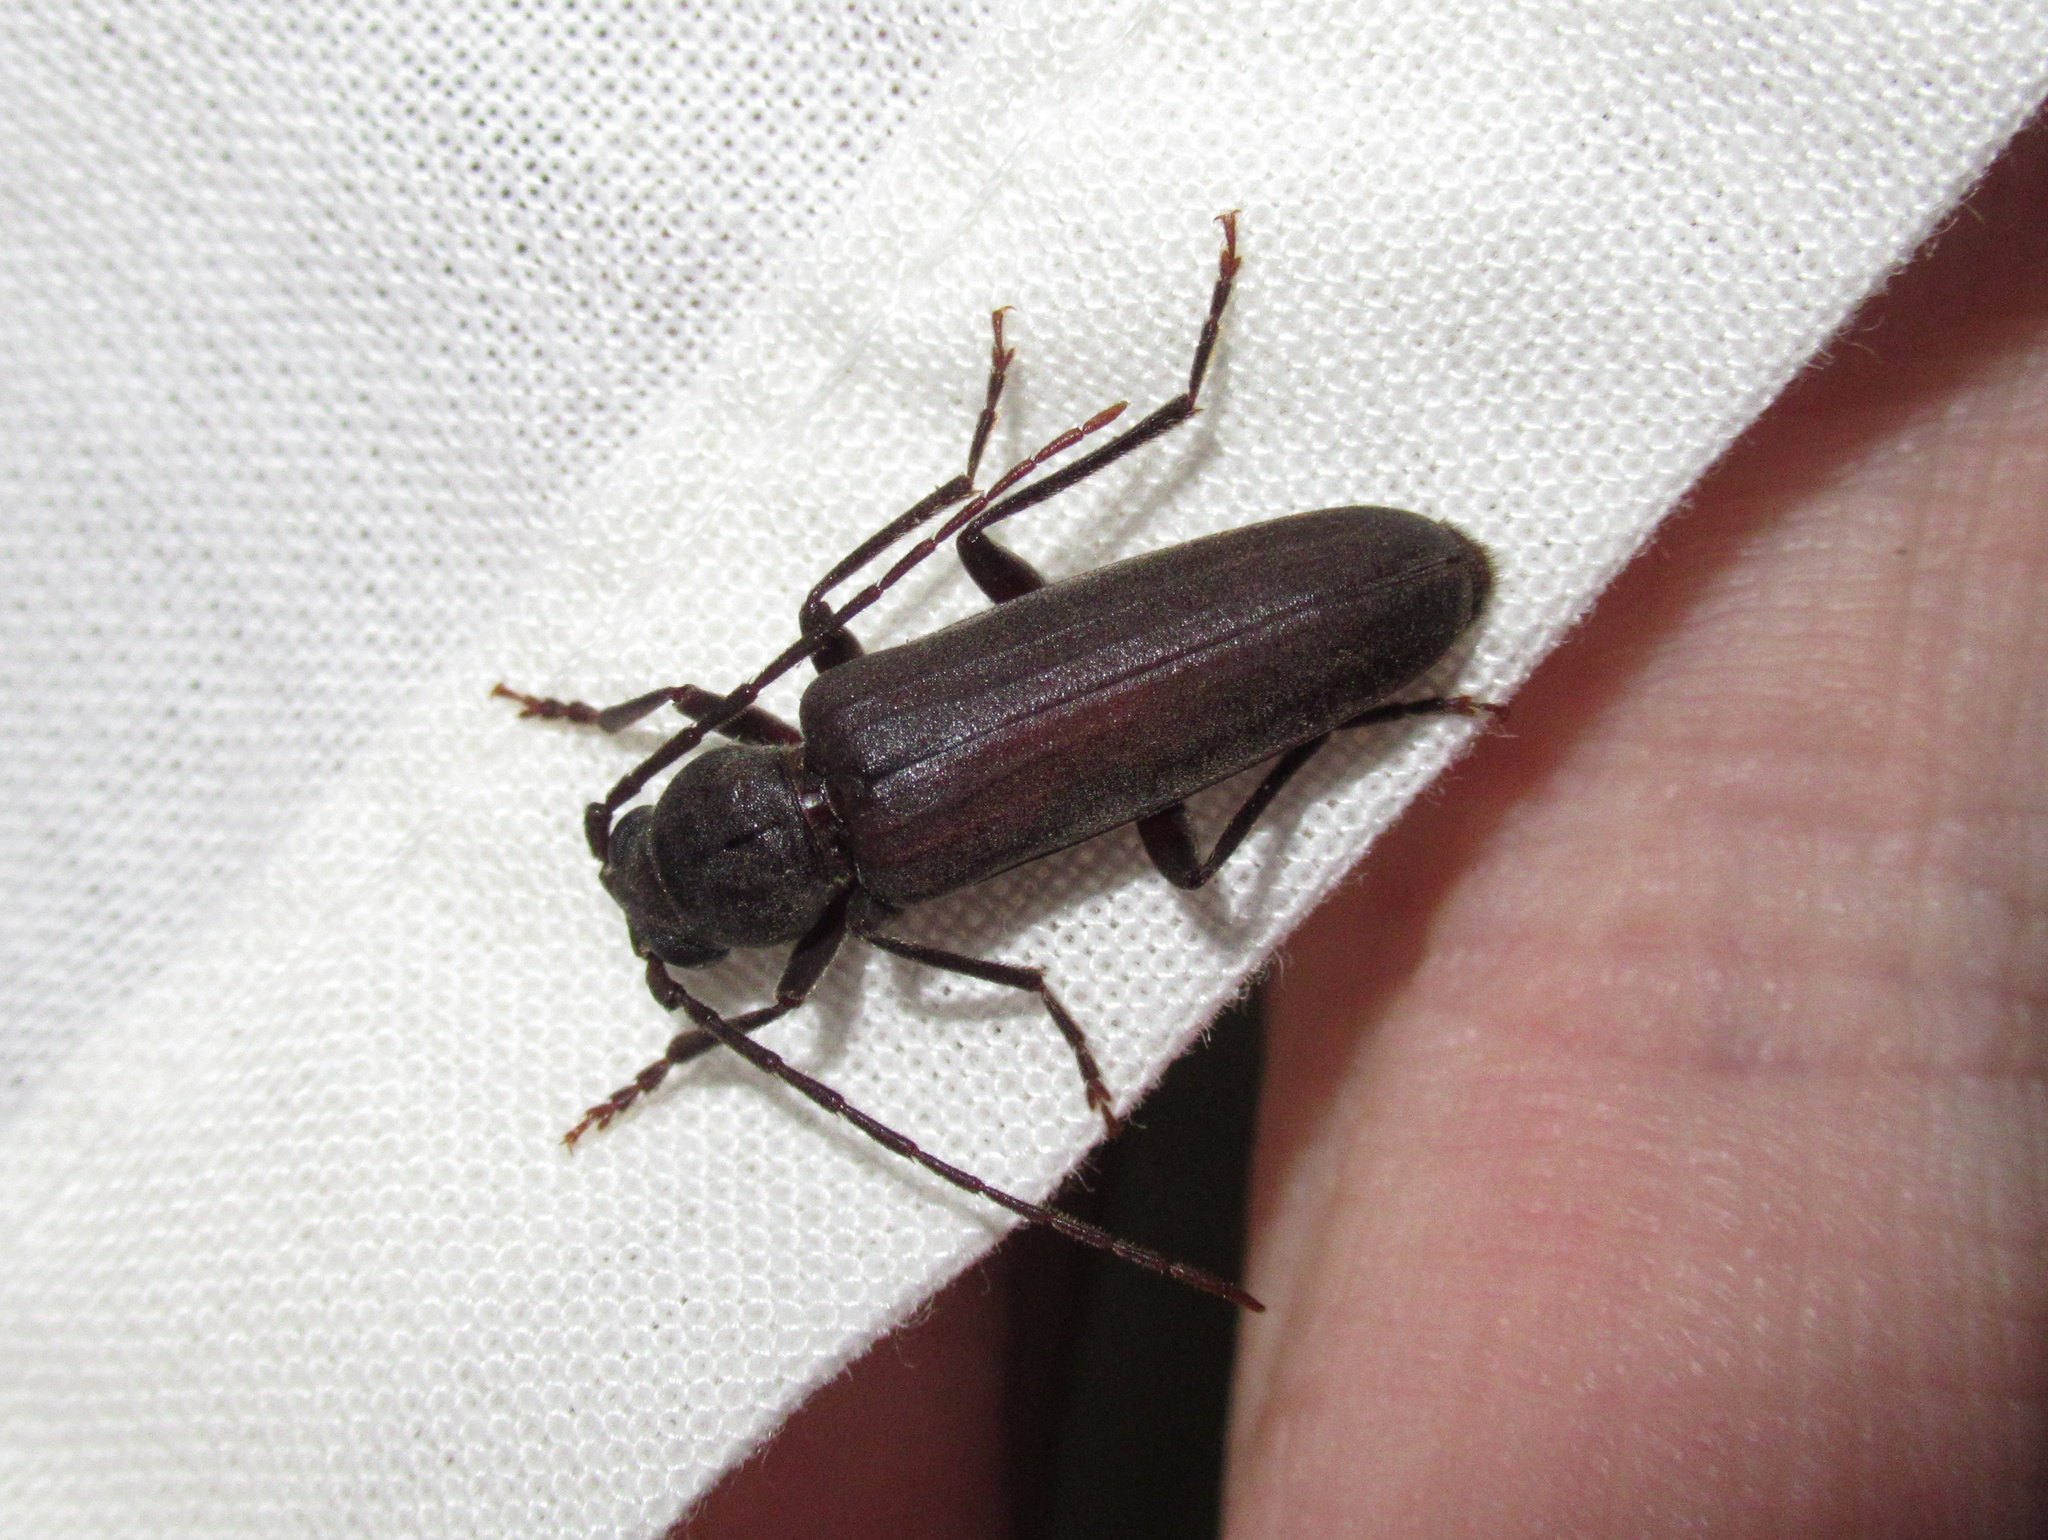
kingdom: Animalia
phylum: Arthropoda
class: Insecta
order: Coleoptera
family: Cerambycidae
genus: Arhopalus
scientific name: Arhopalus ferus
